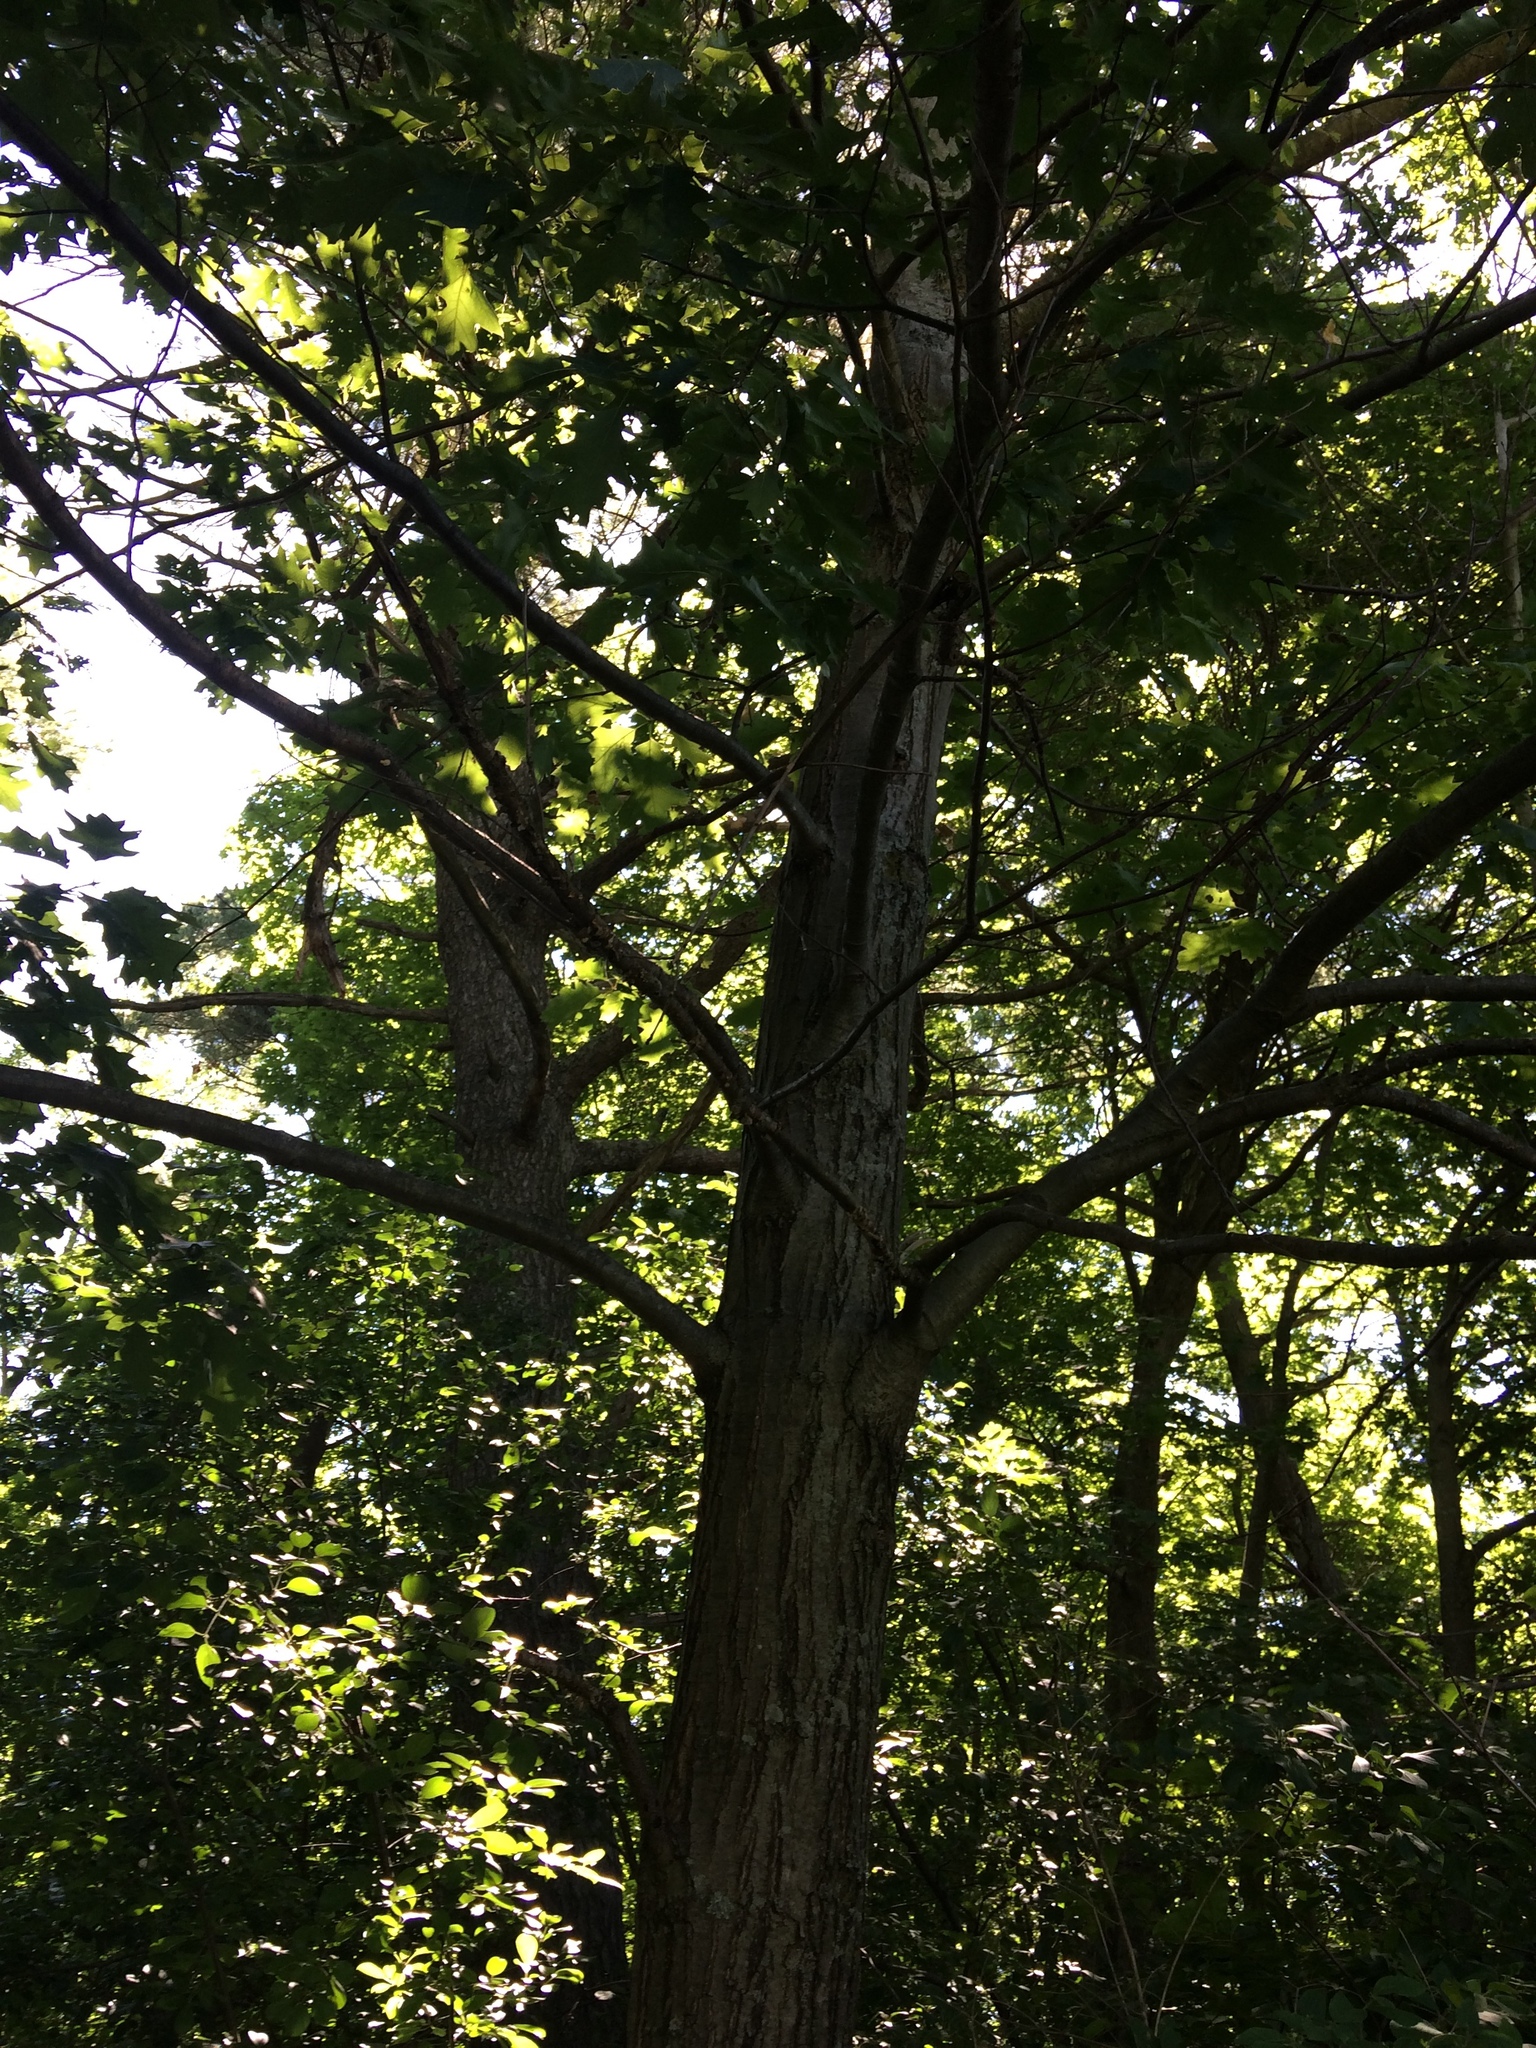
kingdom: Plantae
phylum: Tracheophyta
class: Magnoliopsida
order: Fagales
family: Fagaceae
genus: Quercus
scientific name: Quercus rubra
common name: Red oak
